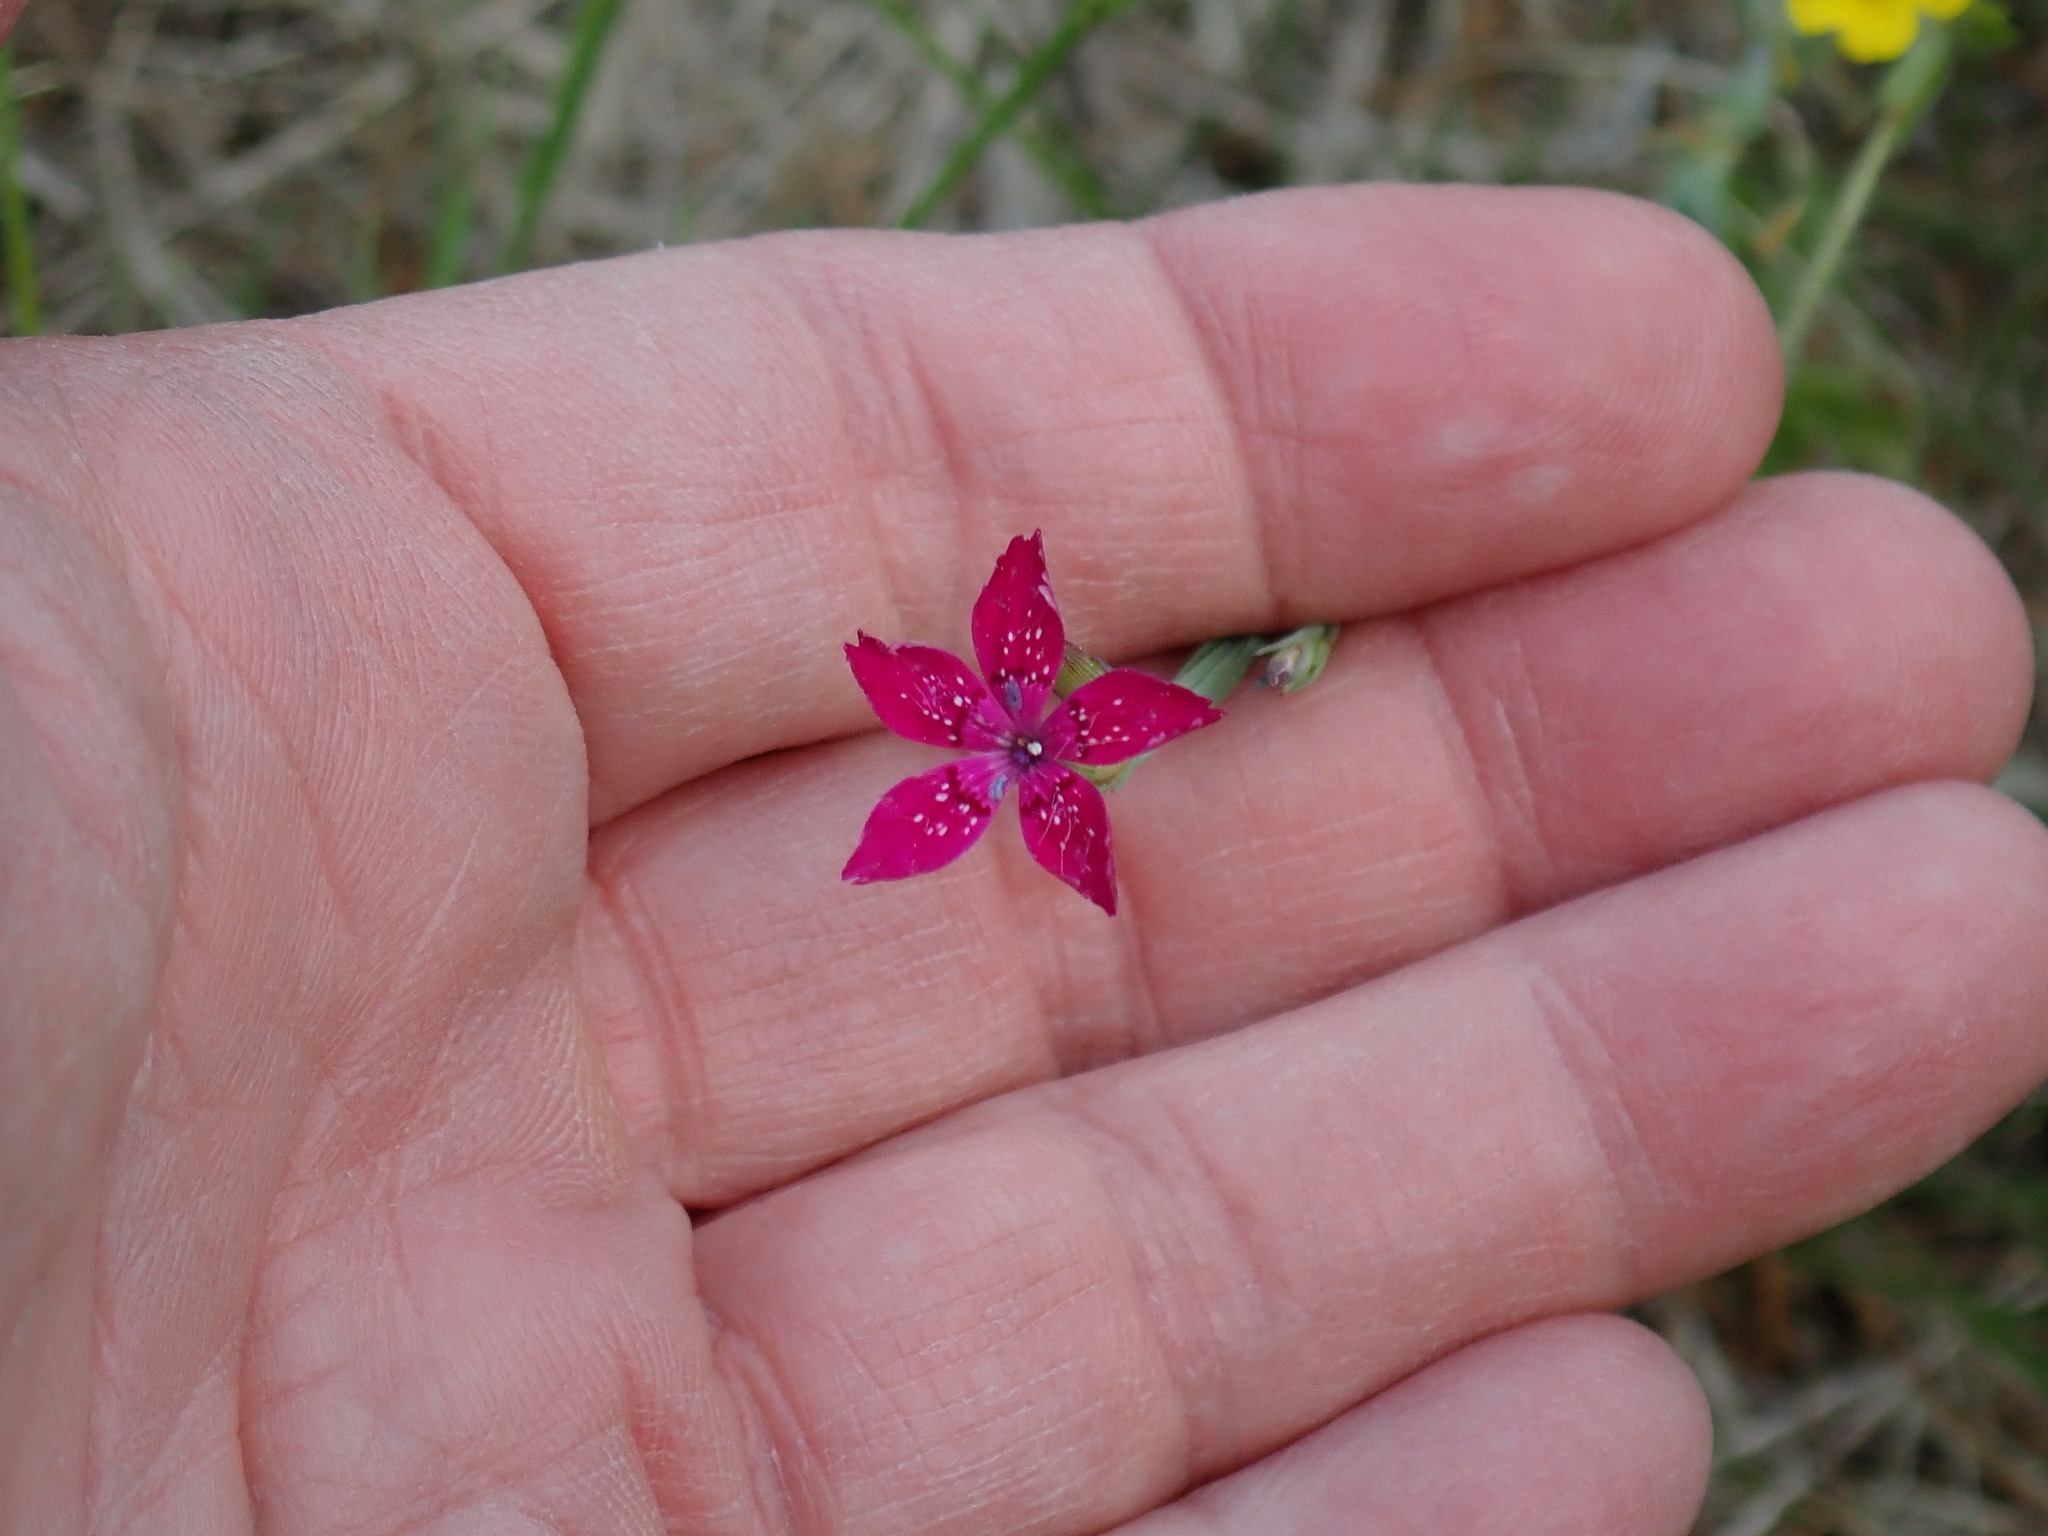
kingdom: Plantae
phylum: Tracheophyta
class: Magnoliopsida
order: Caryophyllales
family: Caryophyllaceae
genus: Dianthus
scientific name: Dianthus deltoides
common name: Maiden pink
